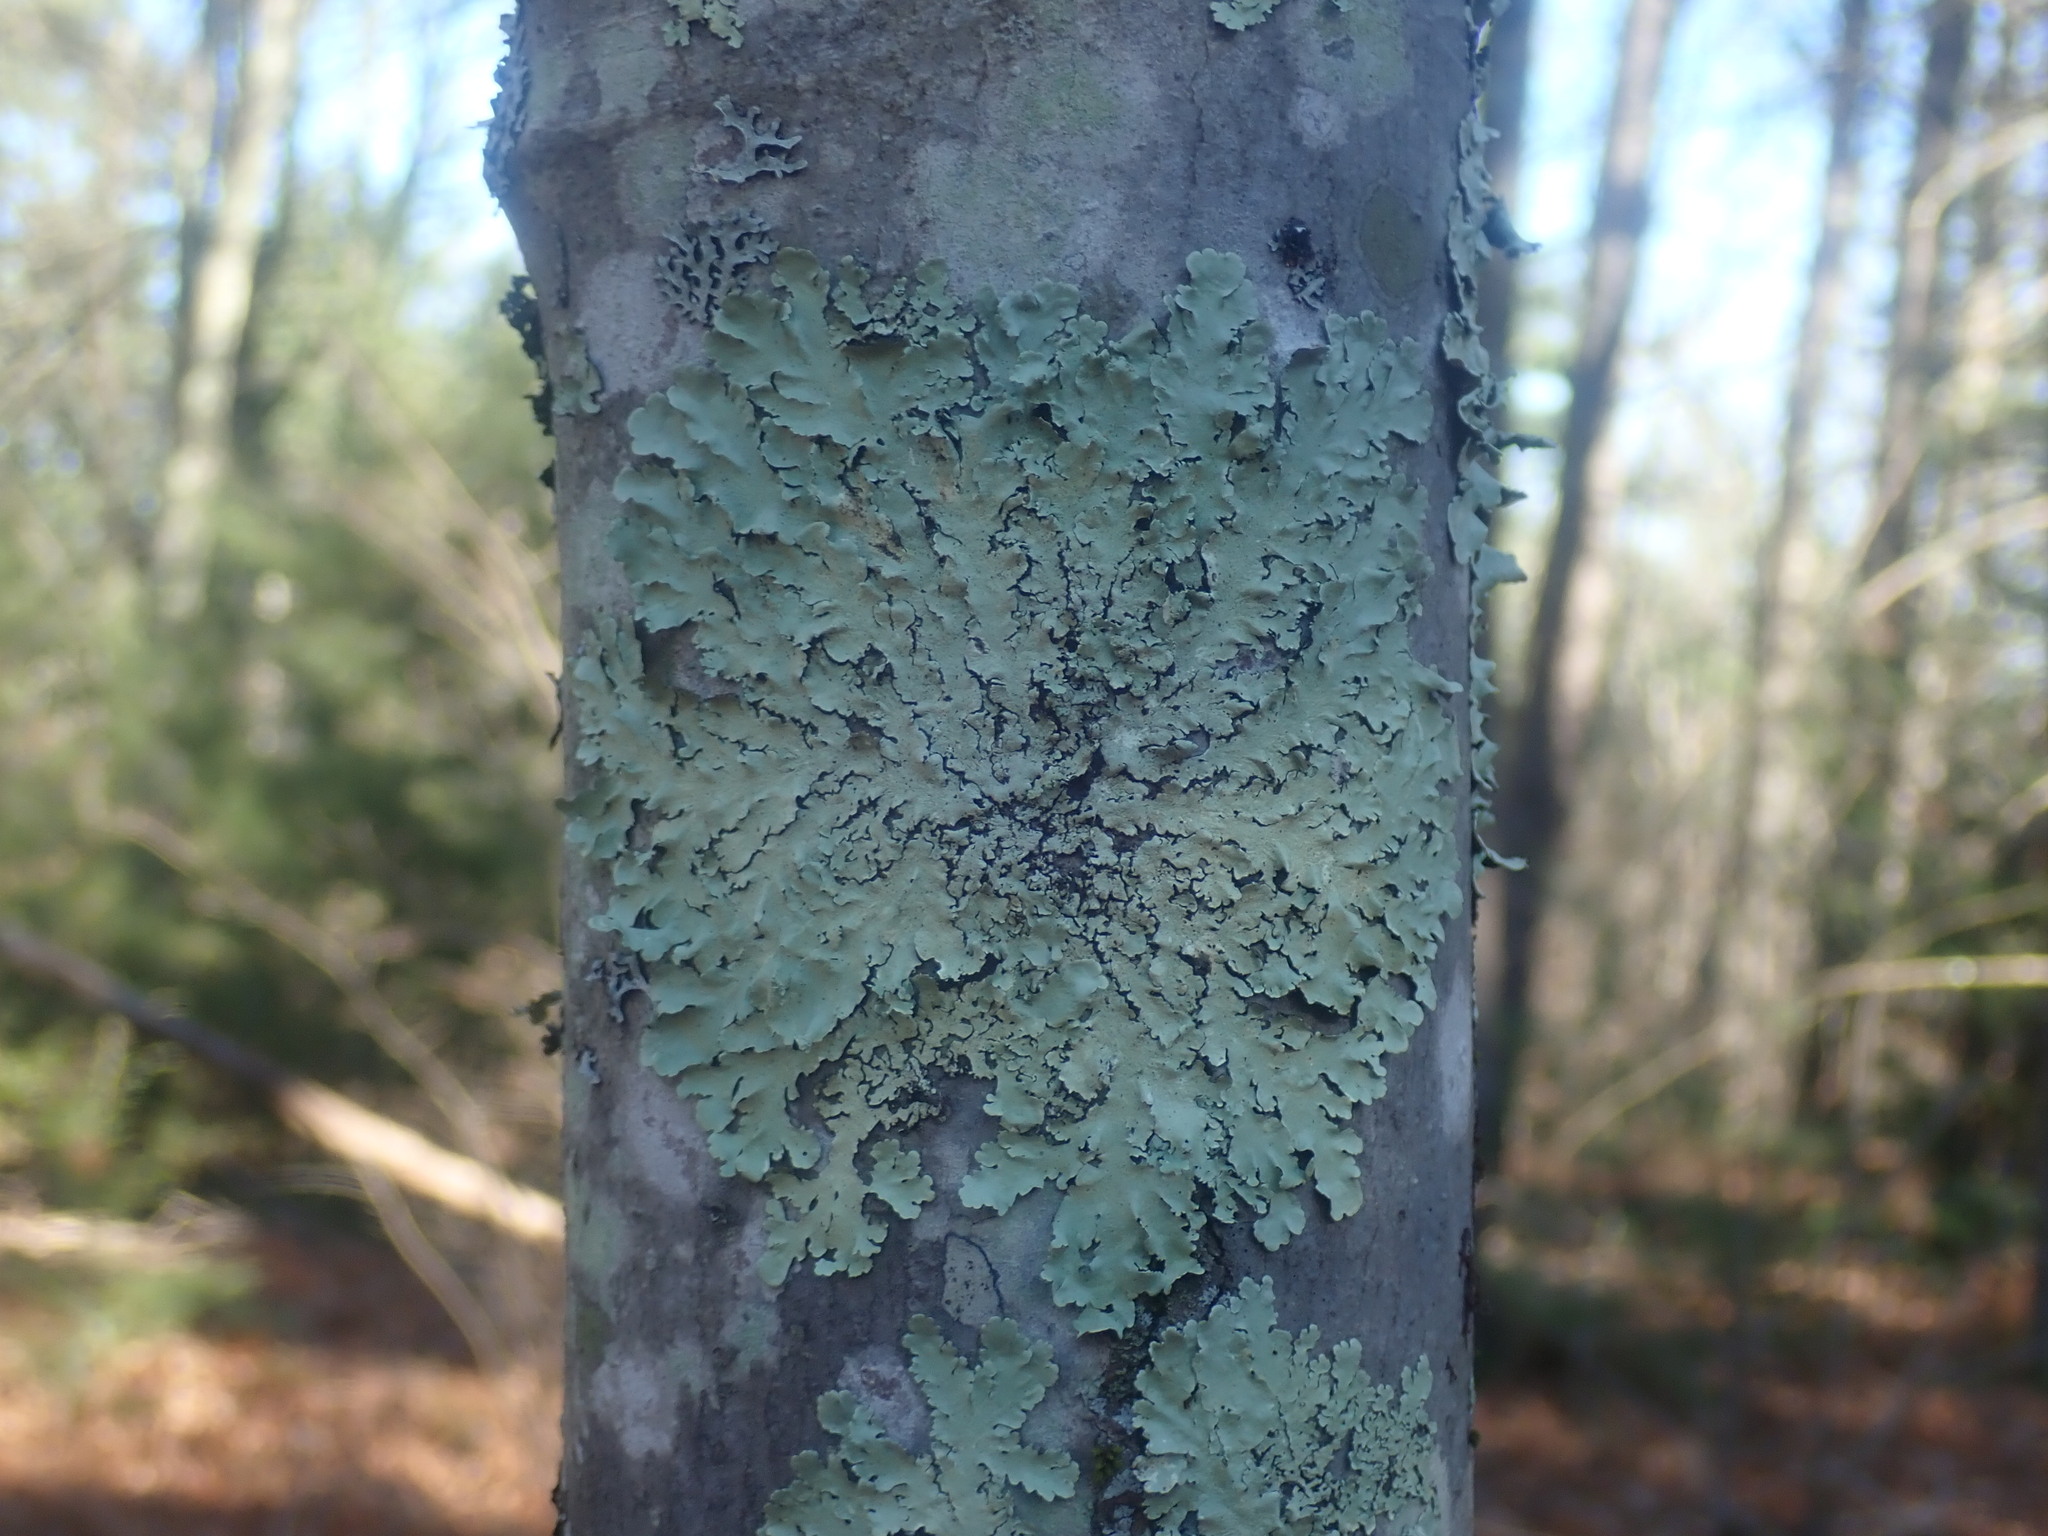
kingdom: Fungi
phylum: Ascomycota
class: Lecanoromycetes
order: Lecanorales
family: Parmeliaceae
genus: Flavoparmelia
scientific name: Flavoparmelia caperata
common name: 40-mile per hour lichen
